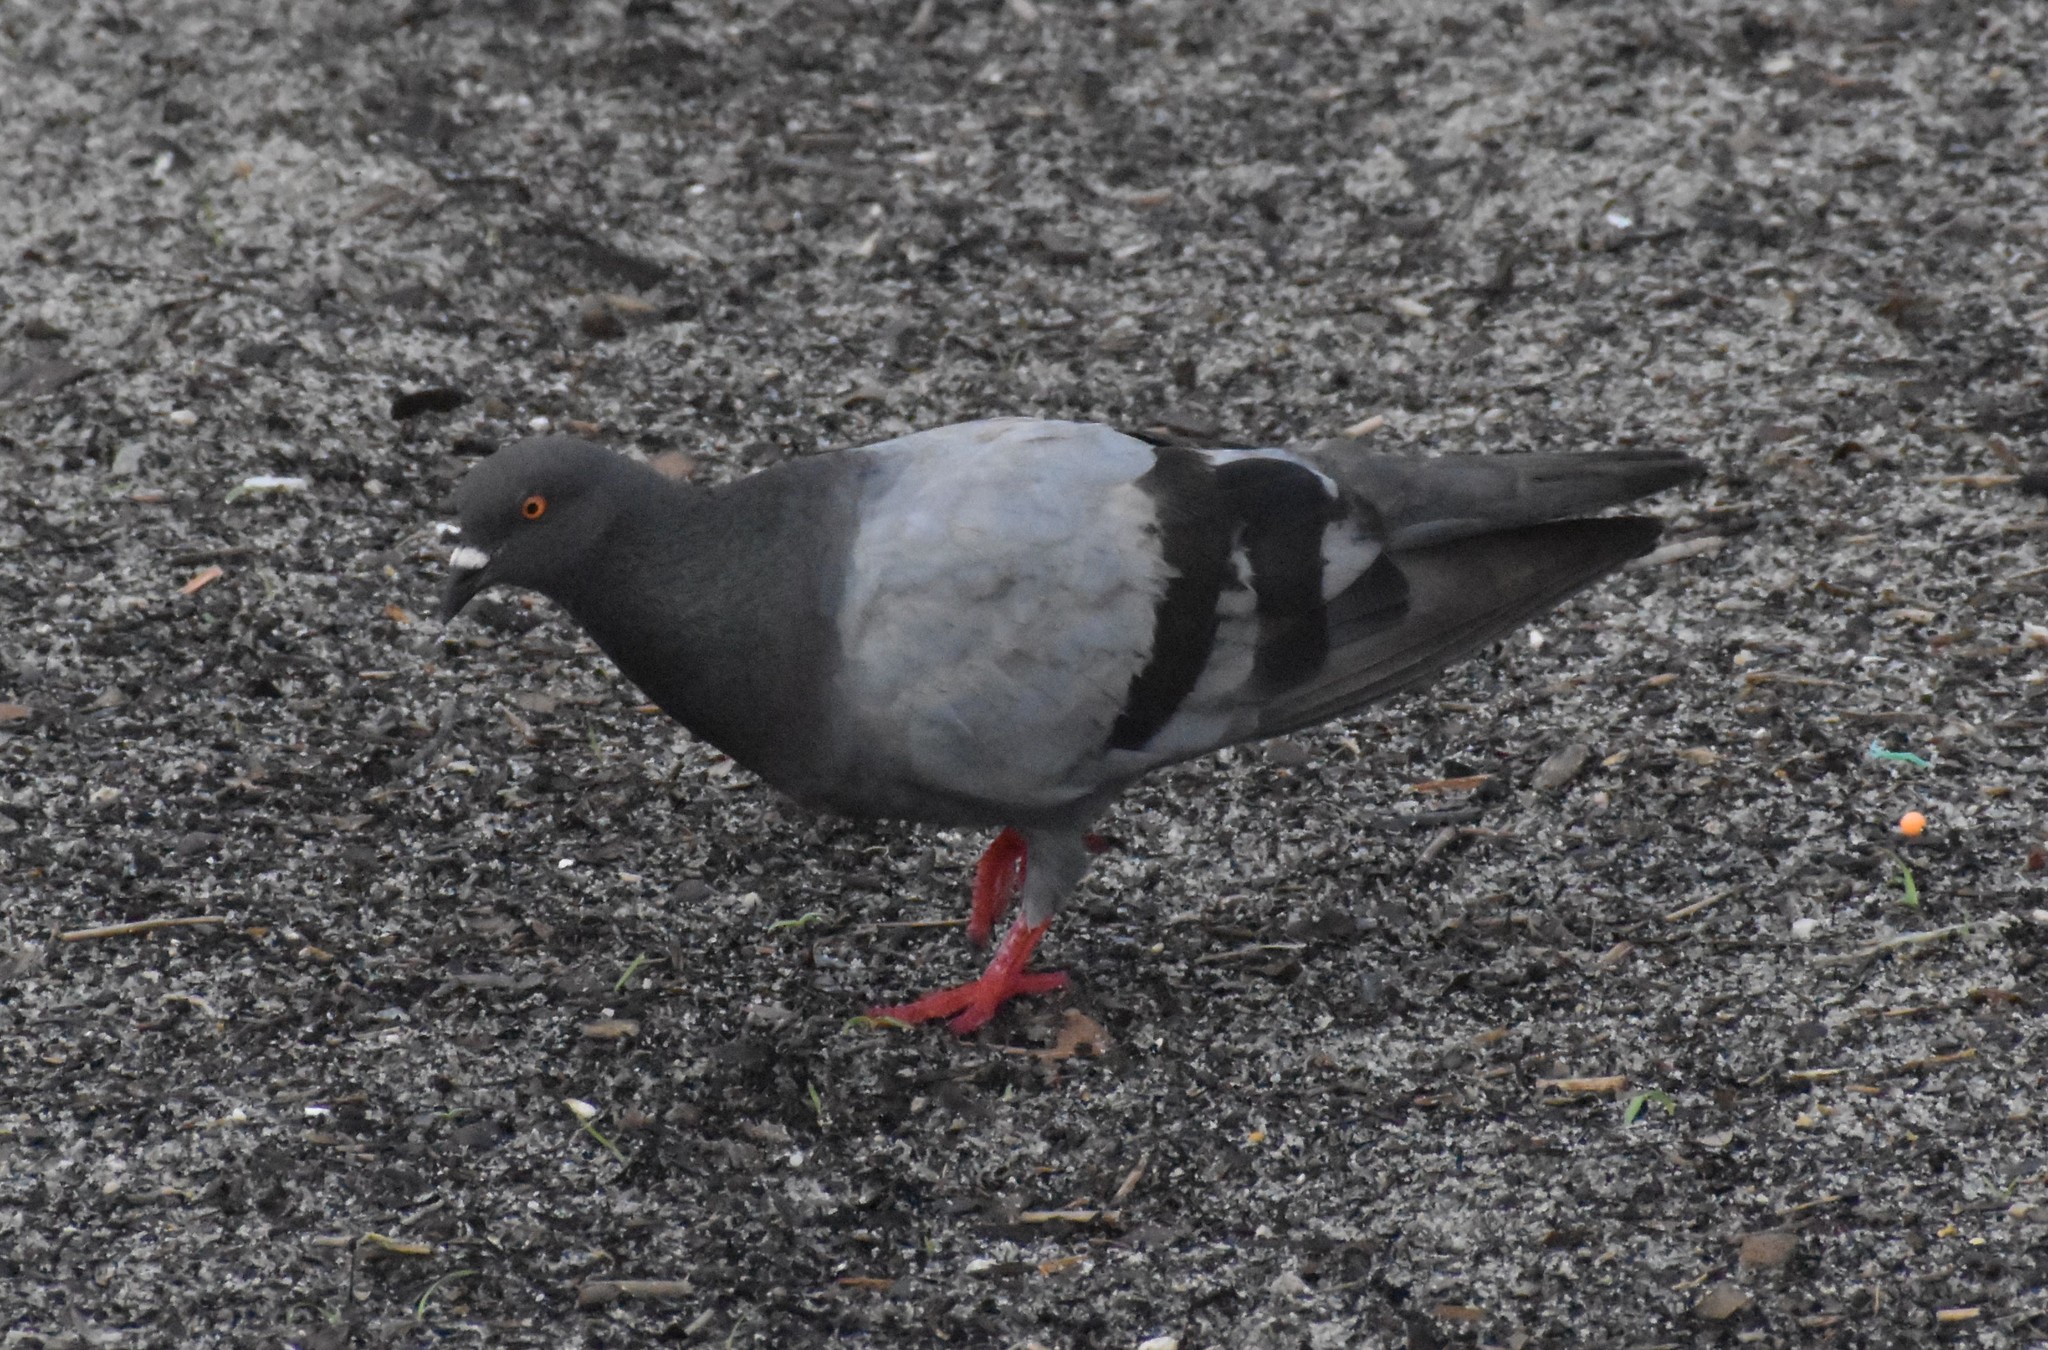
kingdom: Animalia
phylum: Chordata
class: Aves
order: Columbiformes
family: Columbidae
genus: Columba
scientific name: Columba livia
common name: Rock pigeon
